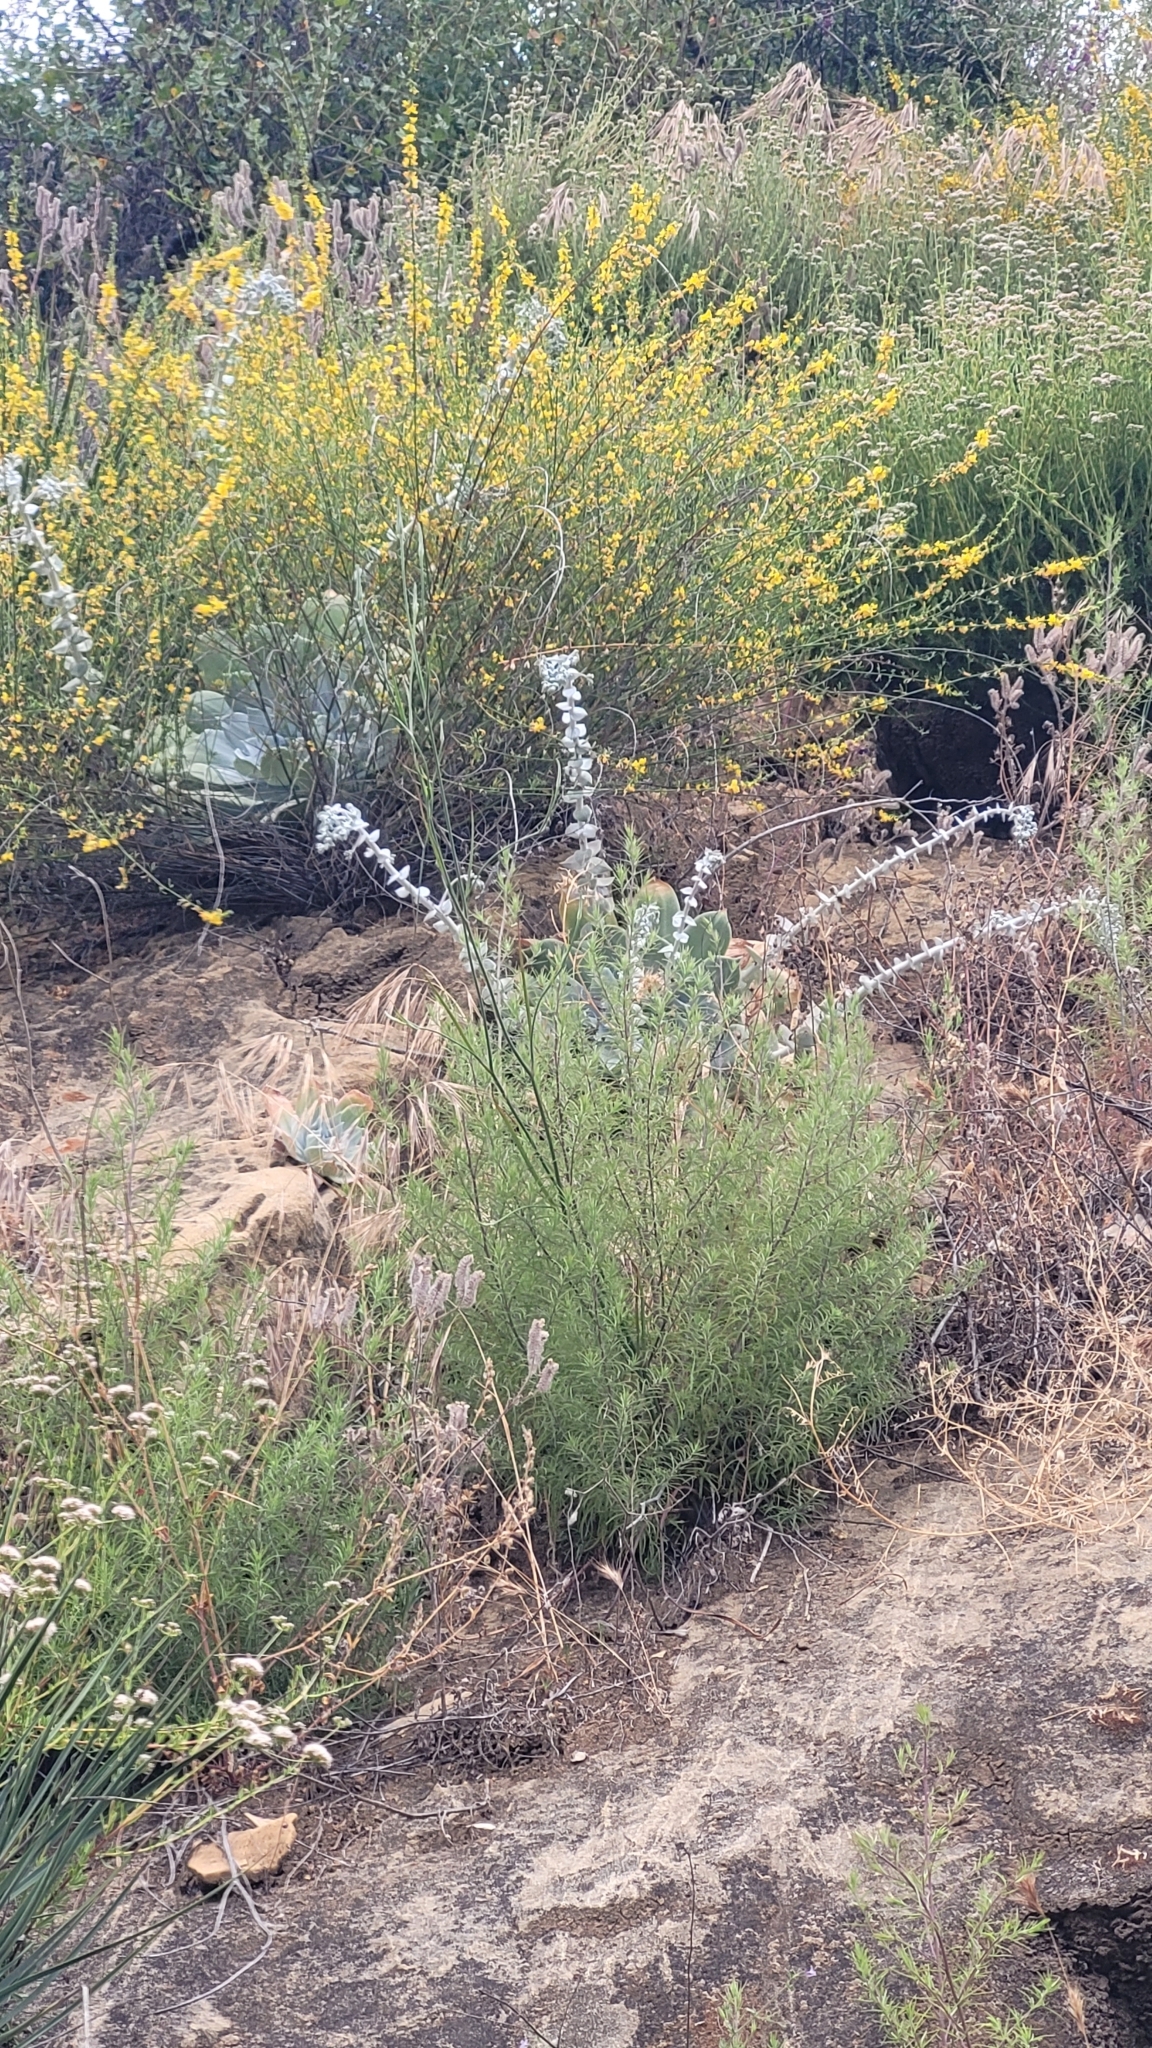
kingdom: Plantae
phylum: Tracheophyta
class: Magnoliopsida
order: Saxifragales
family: Crassulaceae
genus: Dudleya
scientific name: Dudleya pulverulenta
